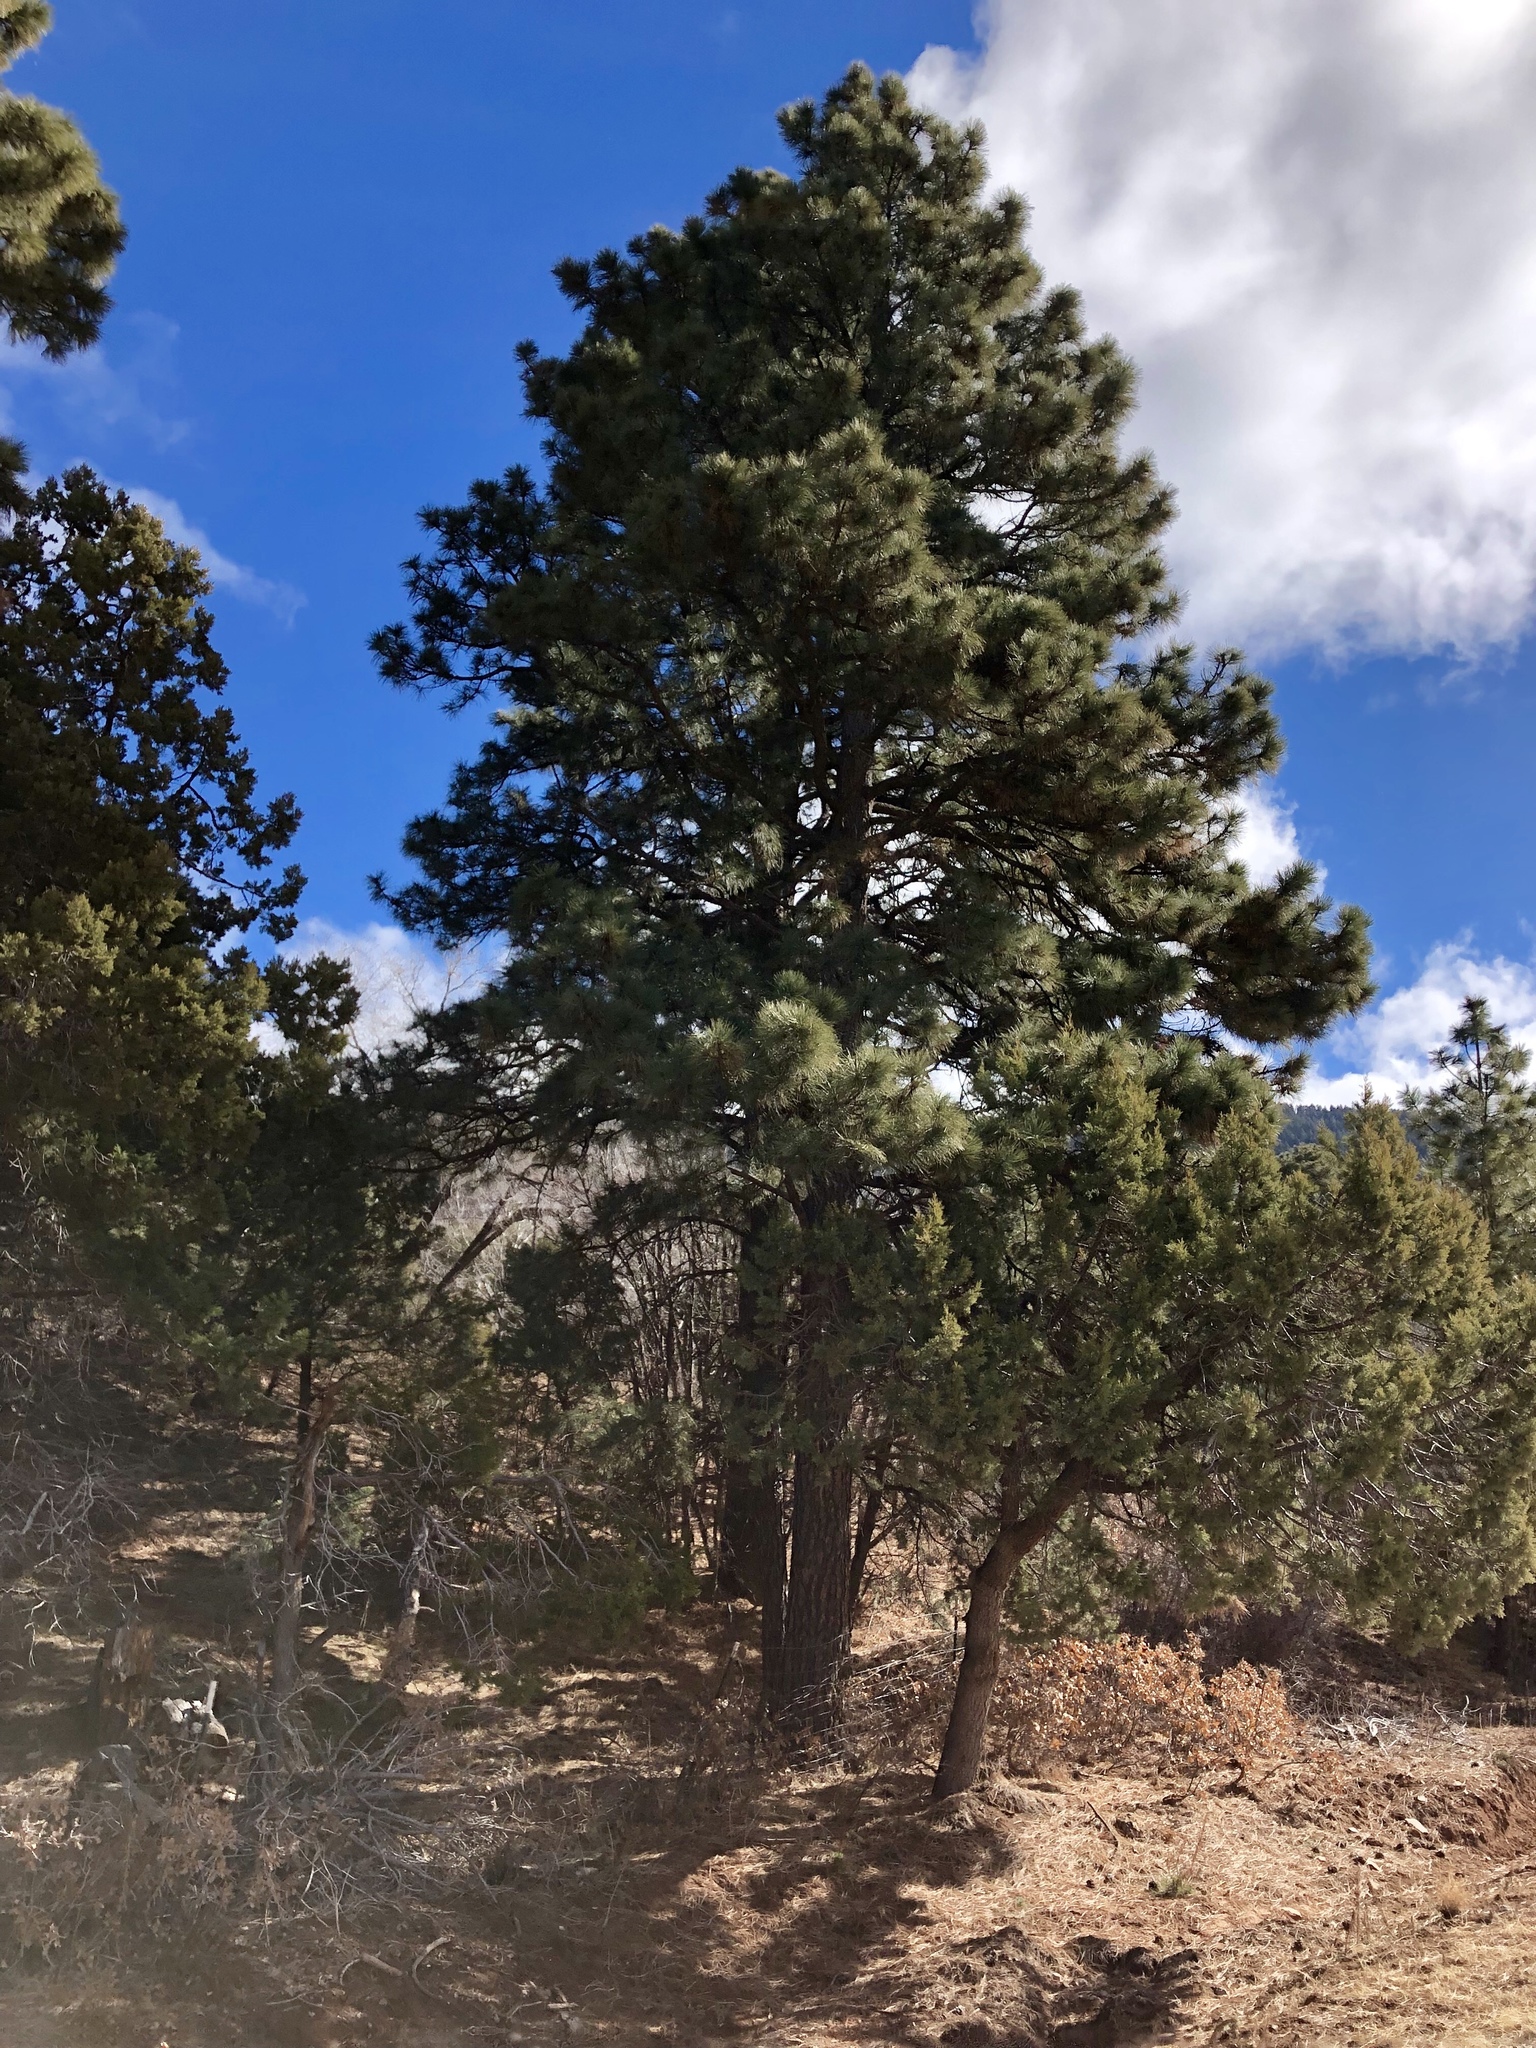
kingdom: Plantae
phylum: Tracheophyta
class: Pinopsida
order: Pinales
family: Pinaceae
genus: Pinus
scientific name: Pinus ponderosa
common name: Western yellow-pine
